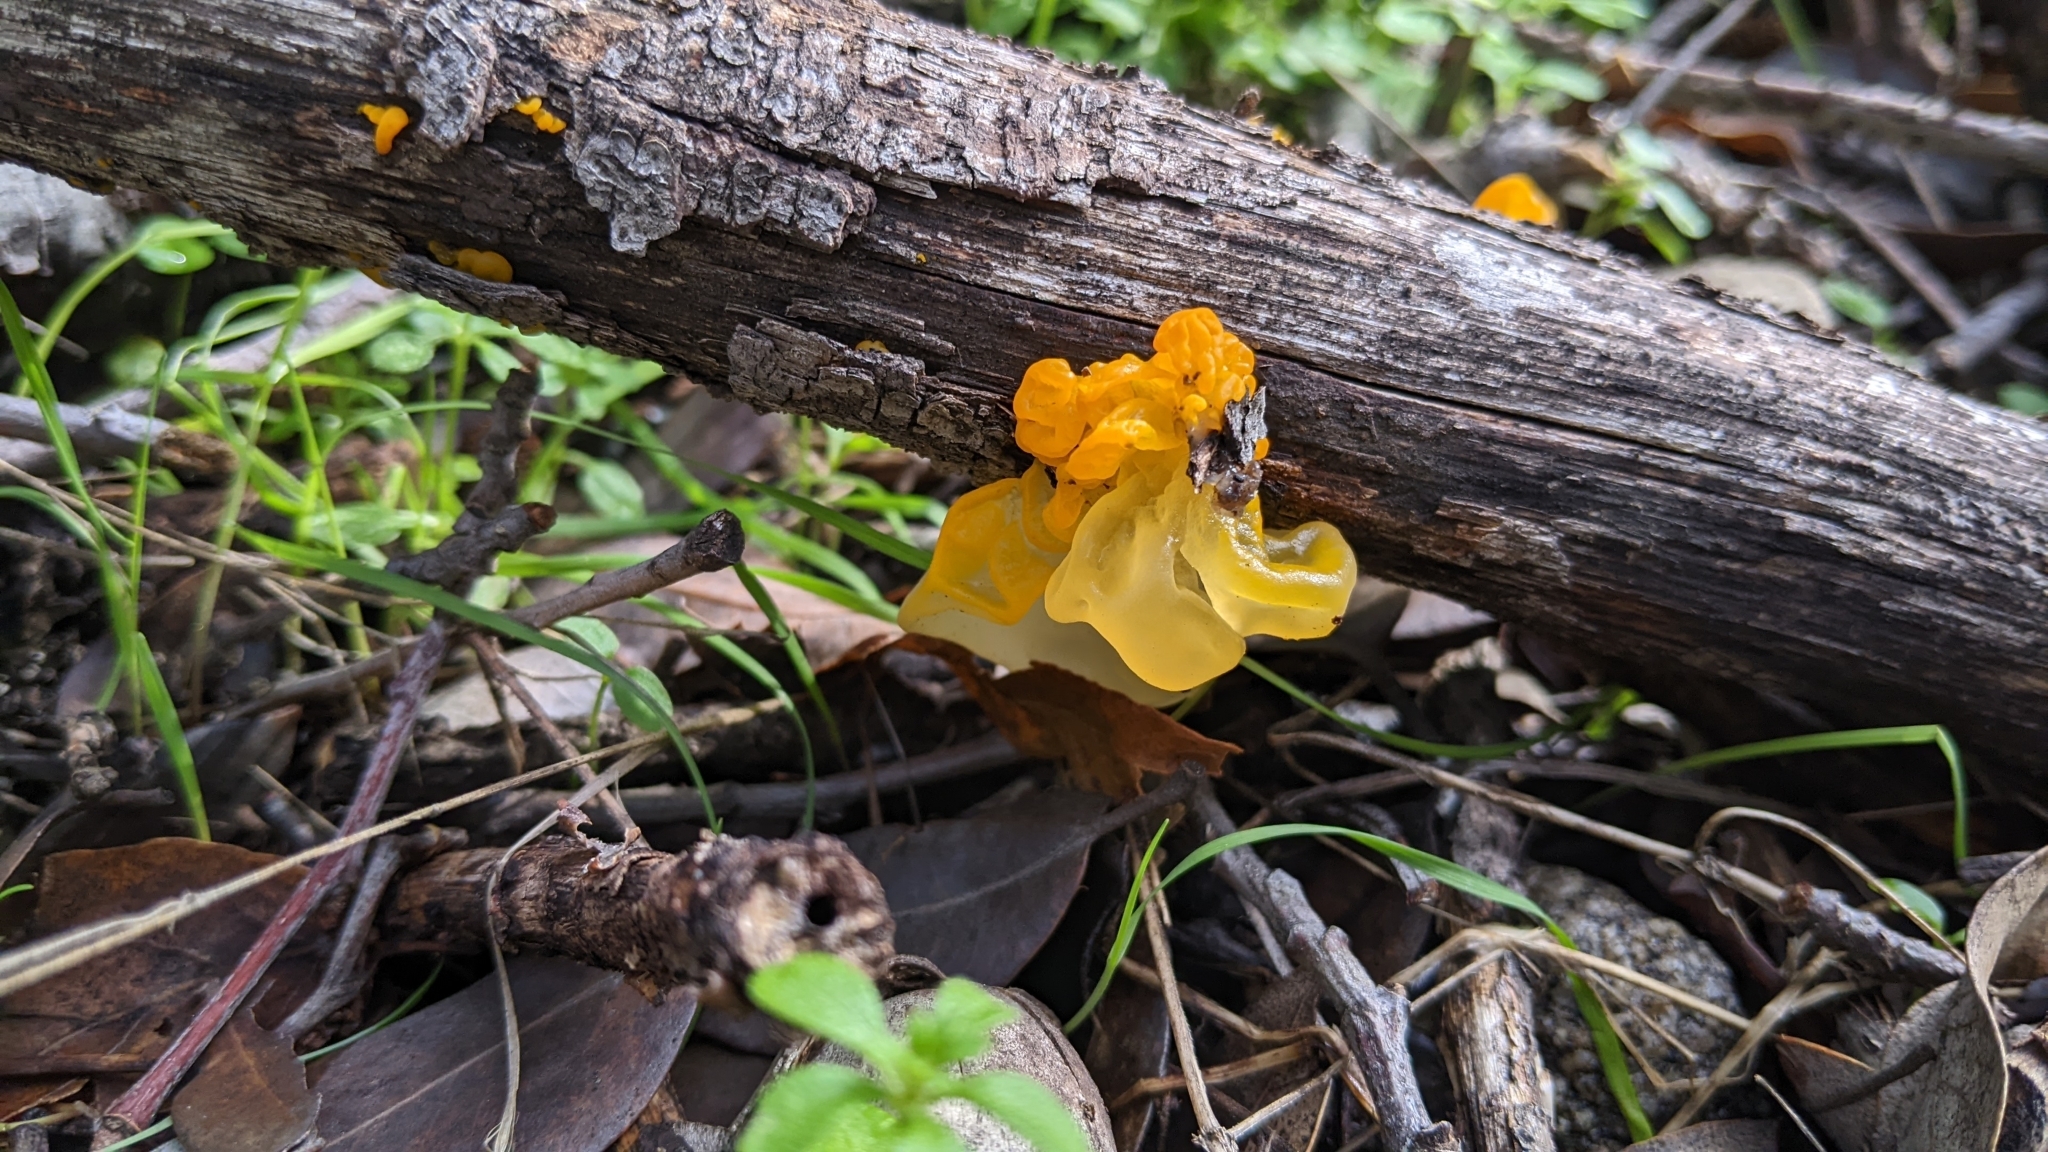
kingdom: Fungi
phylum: Basidiomycota
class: Tremellomycetes
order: Tremellales
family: Tremellaceae
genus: Tremella
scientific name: Tremella mesenterica
